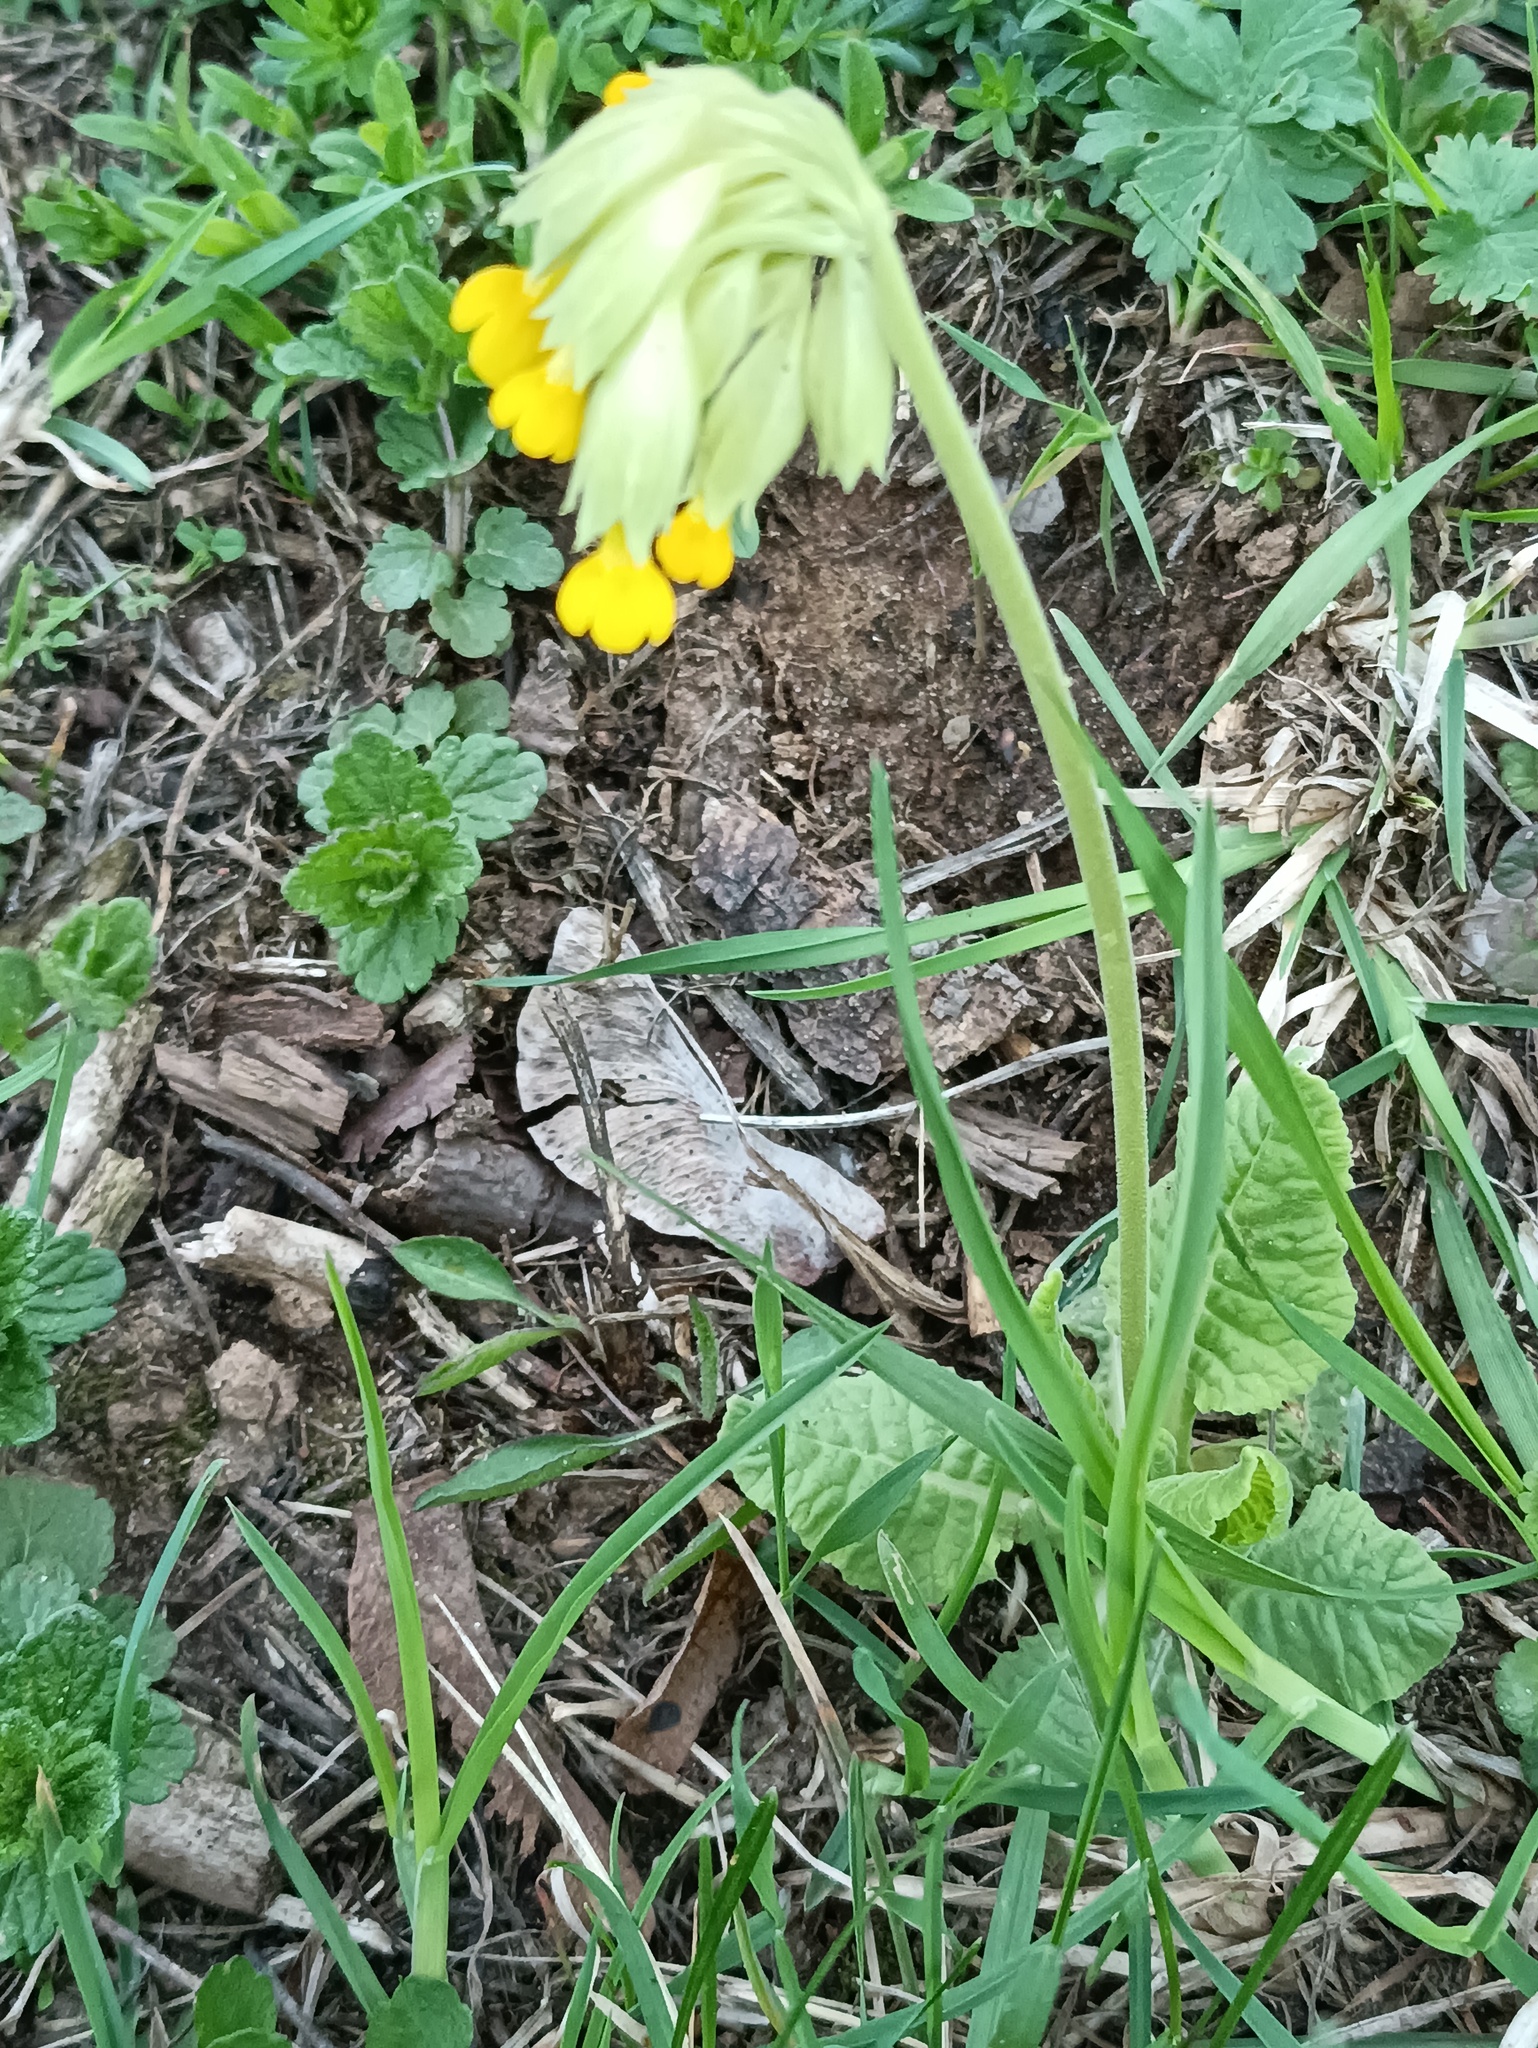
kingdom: Plantae
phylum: Tracheophyta
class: Magnoliopsida
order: Ericales
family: Primulaceae
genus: Primula
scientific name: Primula veris
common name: Cowslip
